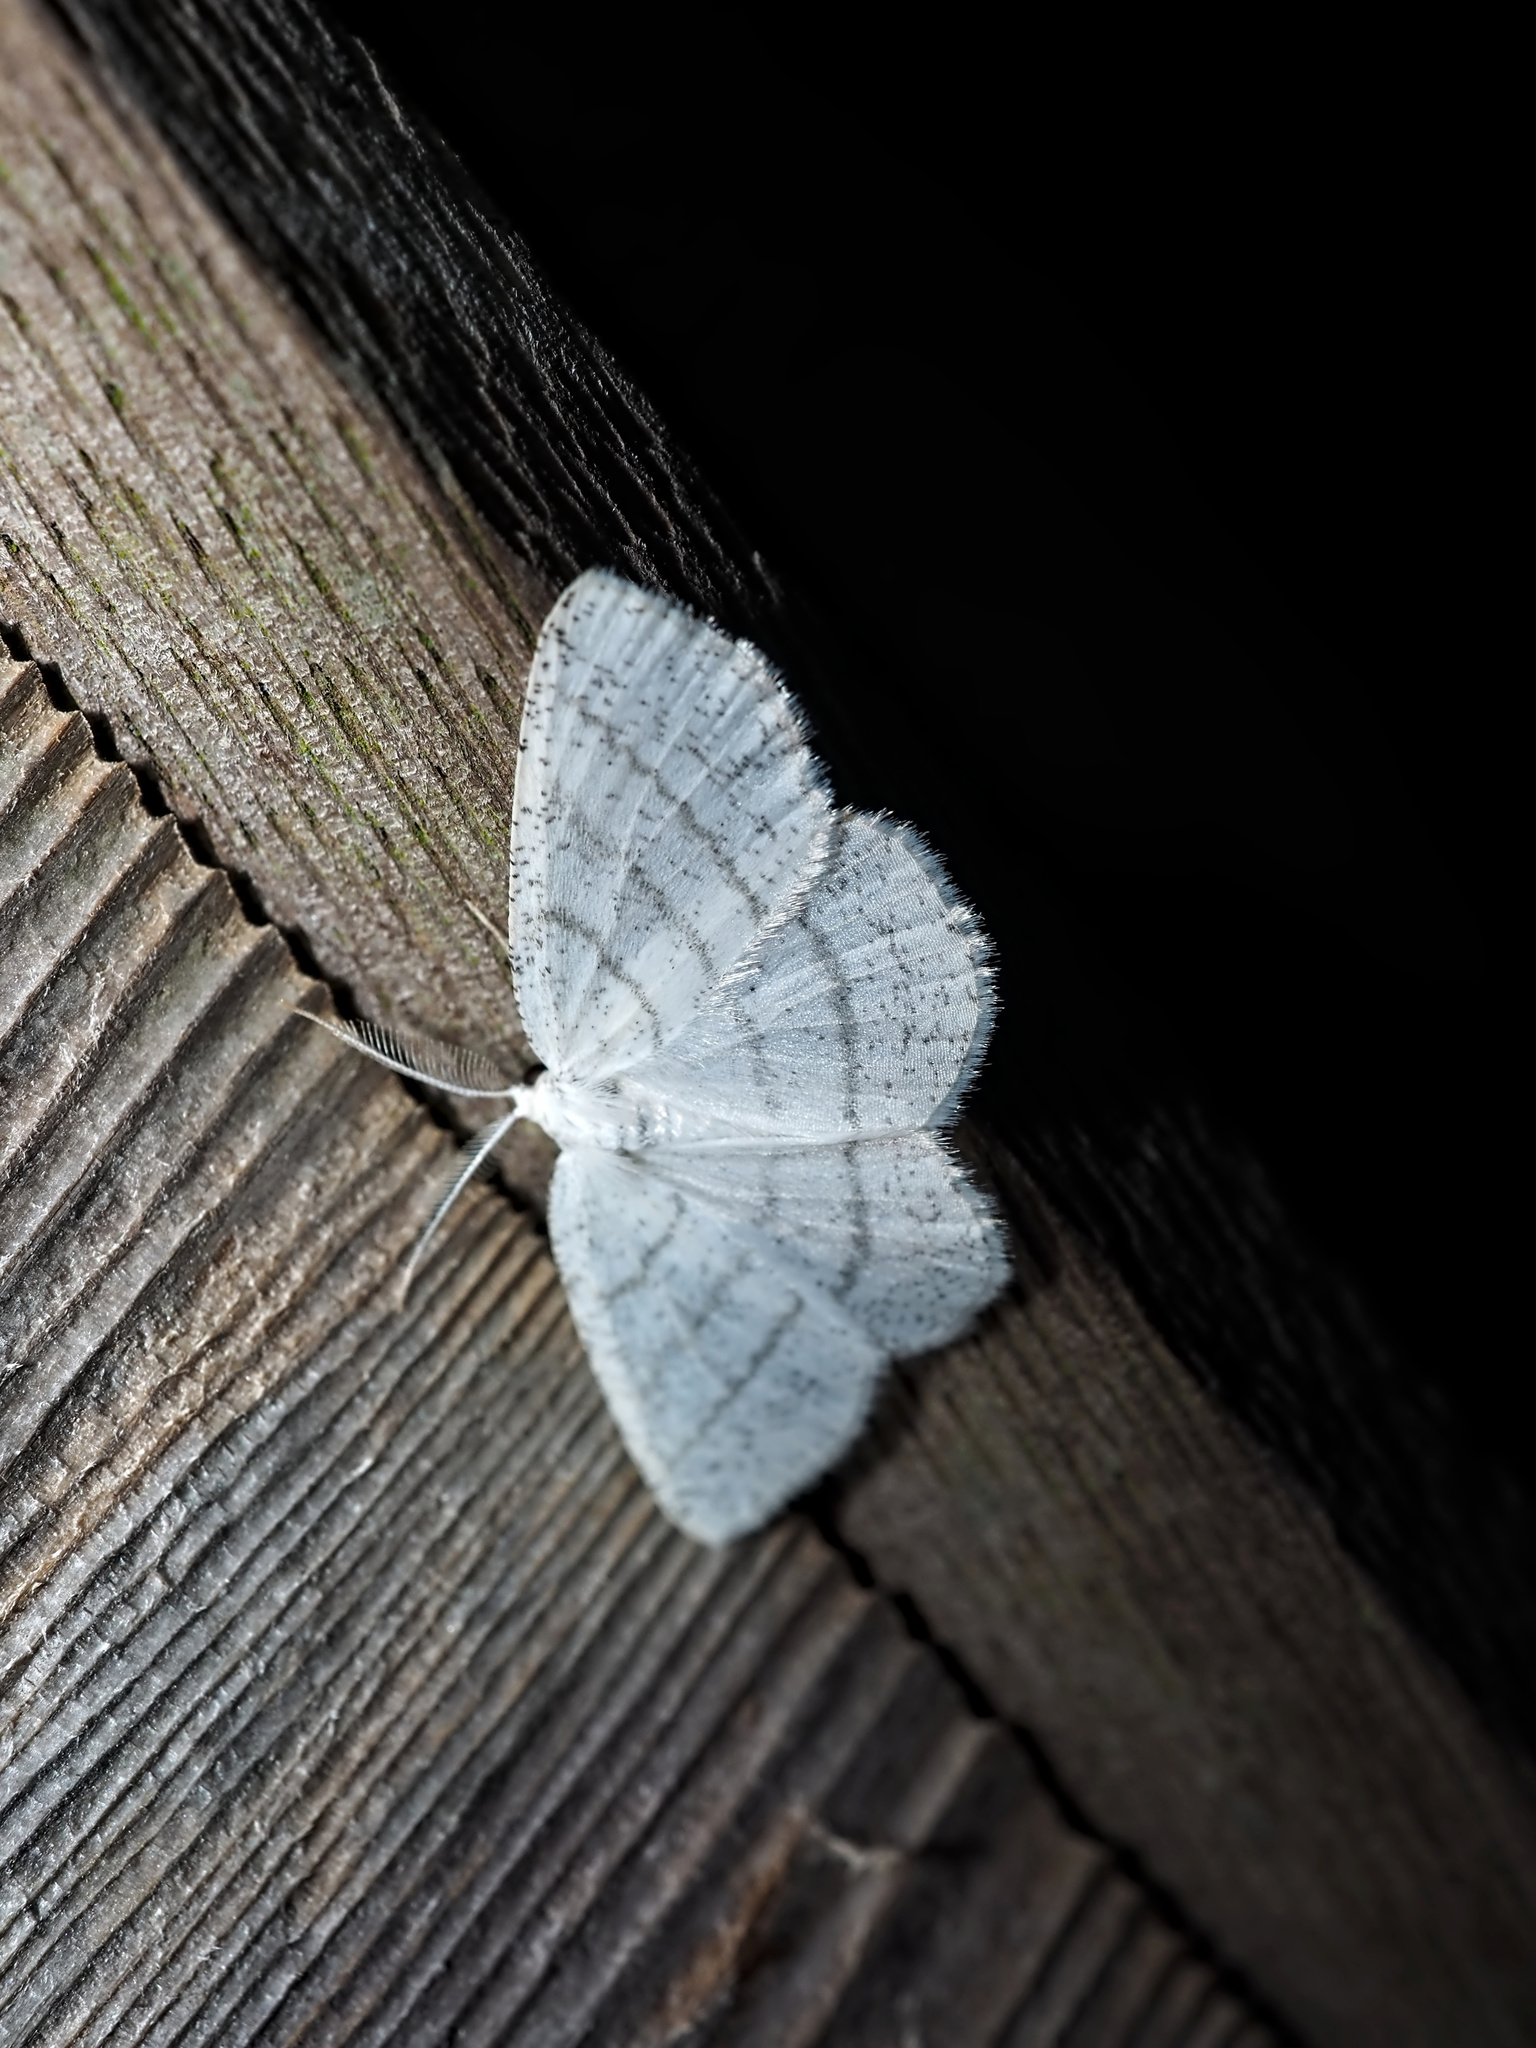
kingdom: Animalia
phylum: Arthropoda
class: Insecta
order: Lepidoptera
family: Geometridae
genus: Cabera
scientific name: Cabera pusaria
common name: Common white wave
